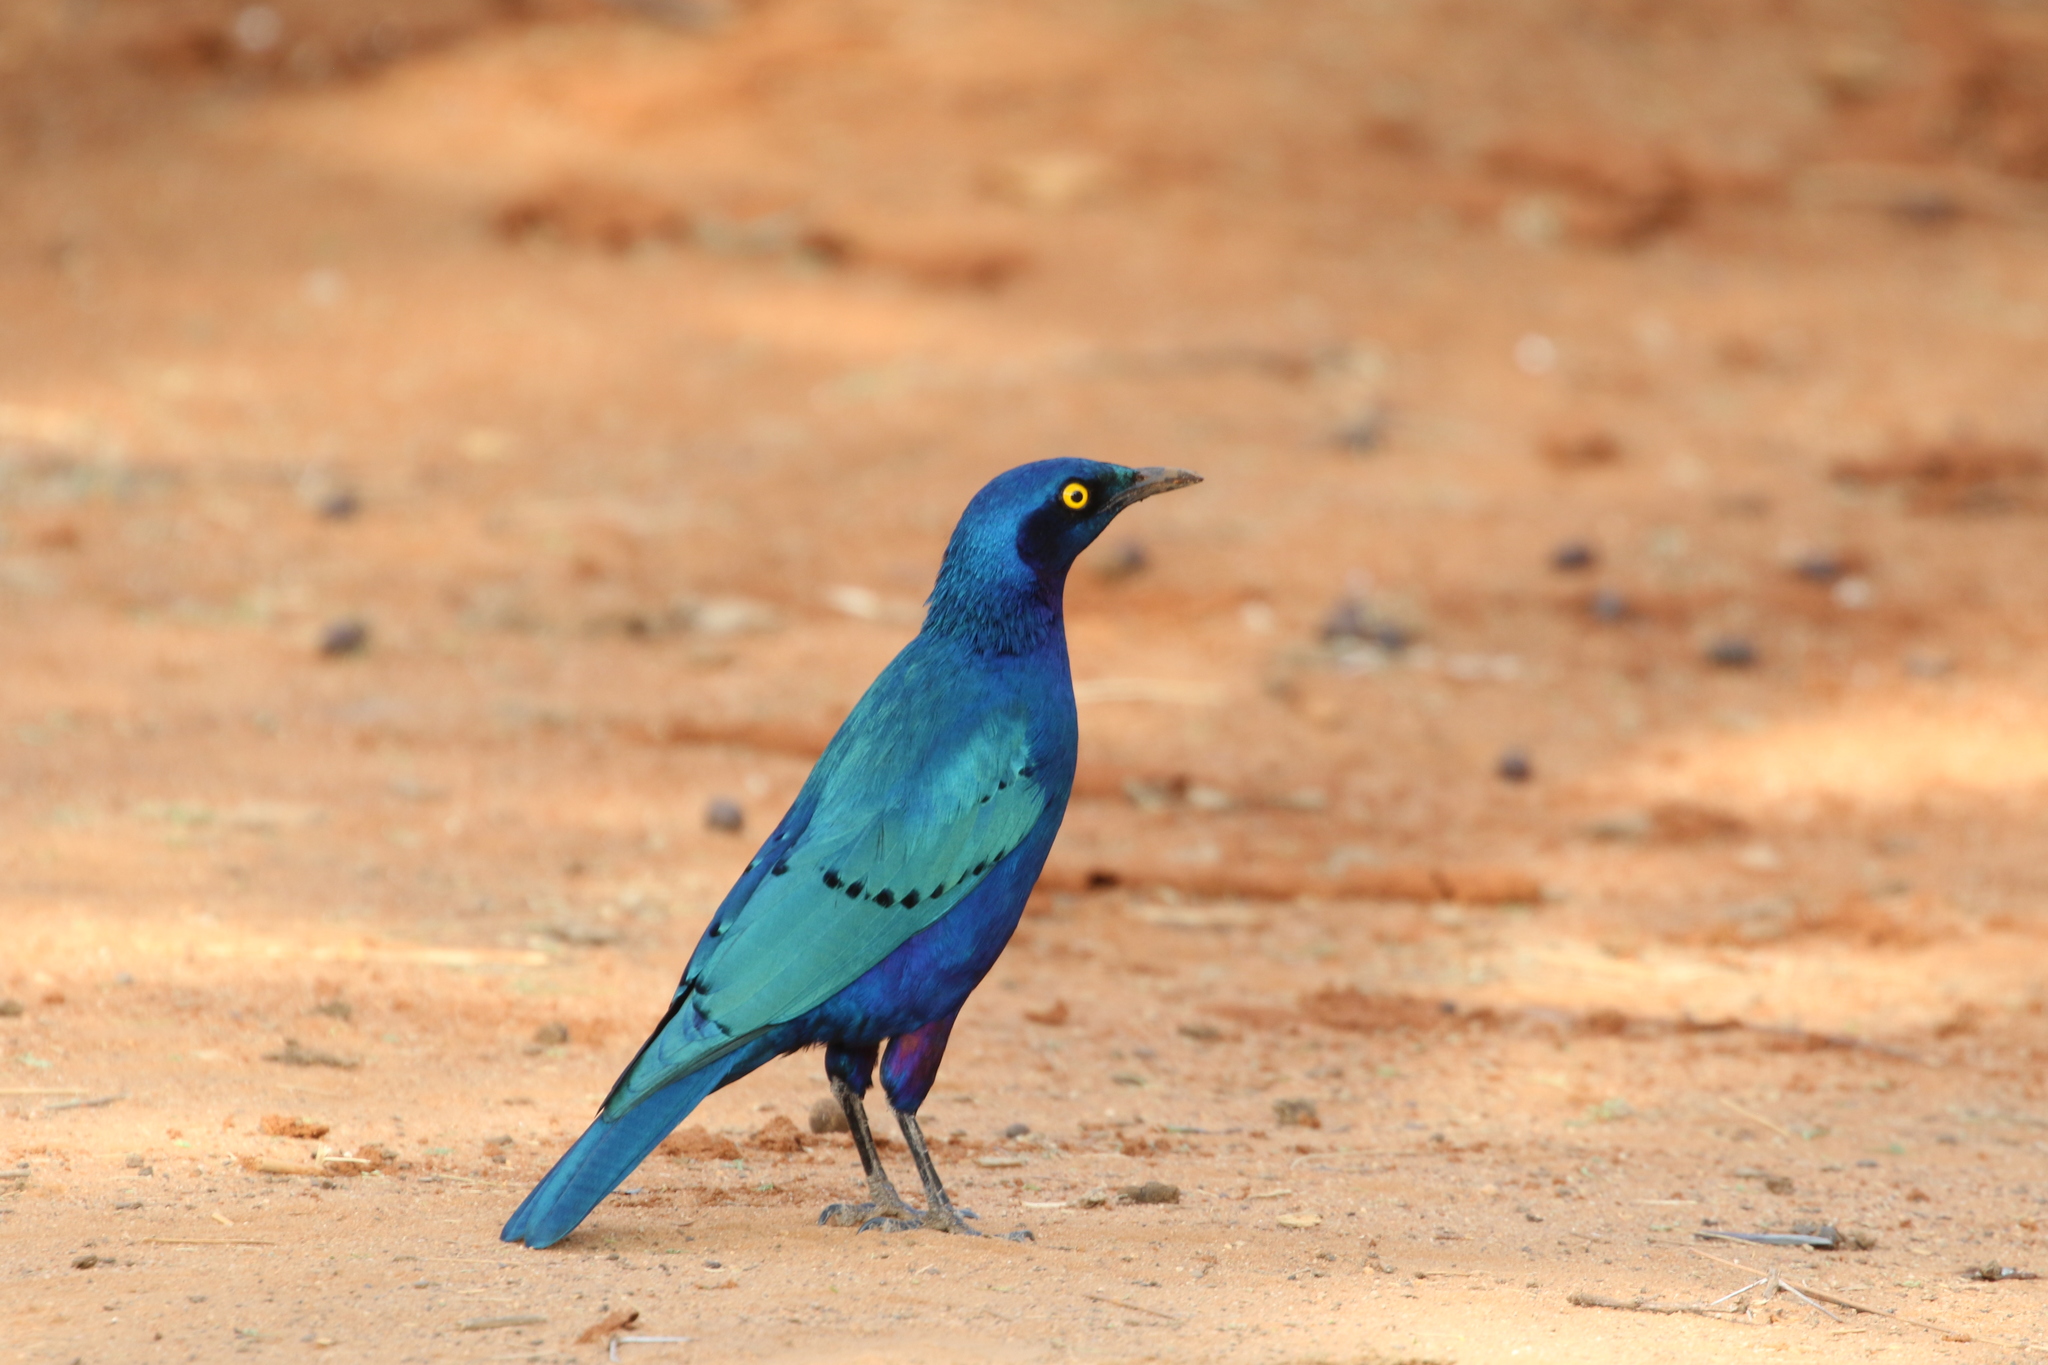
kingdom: Animalia
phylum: Chordata
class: Aves
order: Passeriformes
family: Sturnidae
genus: Lamprotornis
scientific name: Lamprotornis chalybaeus
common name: Greater blue-eared starling
